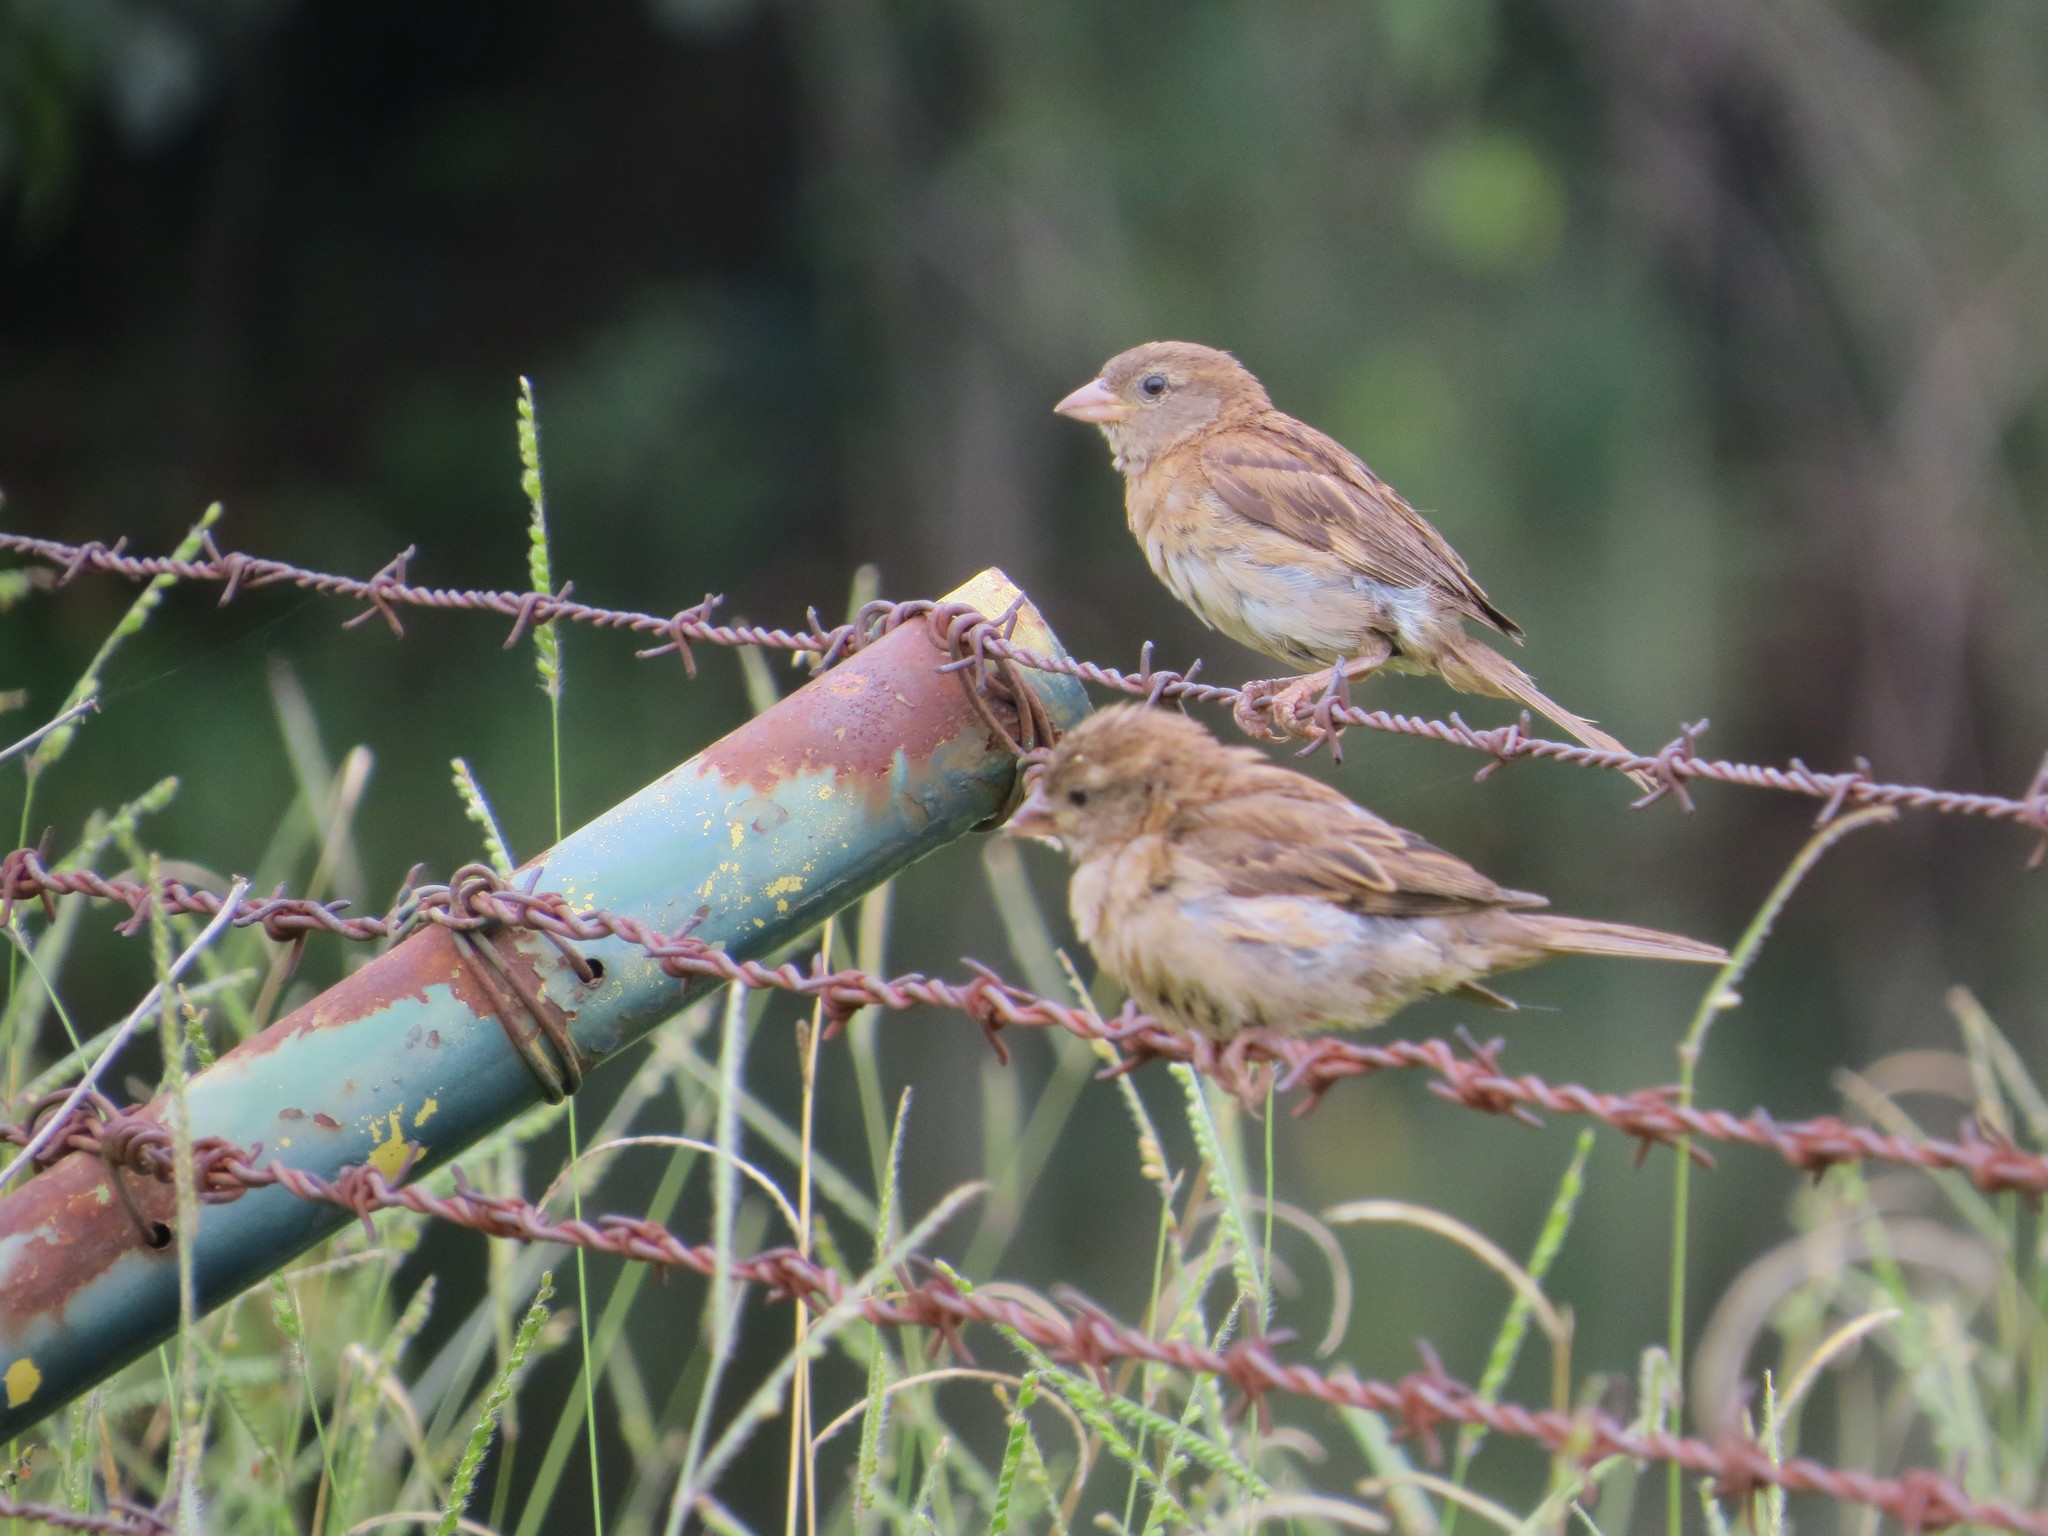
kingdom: Animalia
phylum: Chordata
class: Aves
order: Passeriformes
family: Passeridae
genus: Passer
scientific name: Passer domesticus
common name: House sparrow
